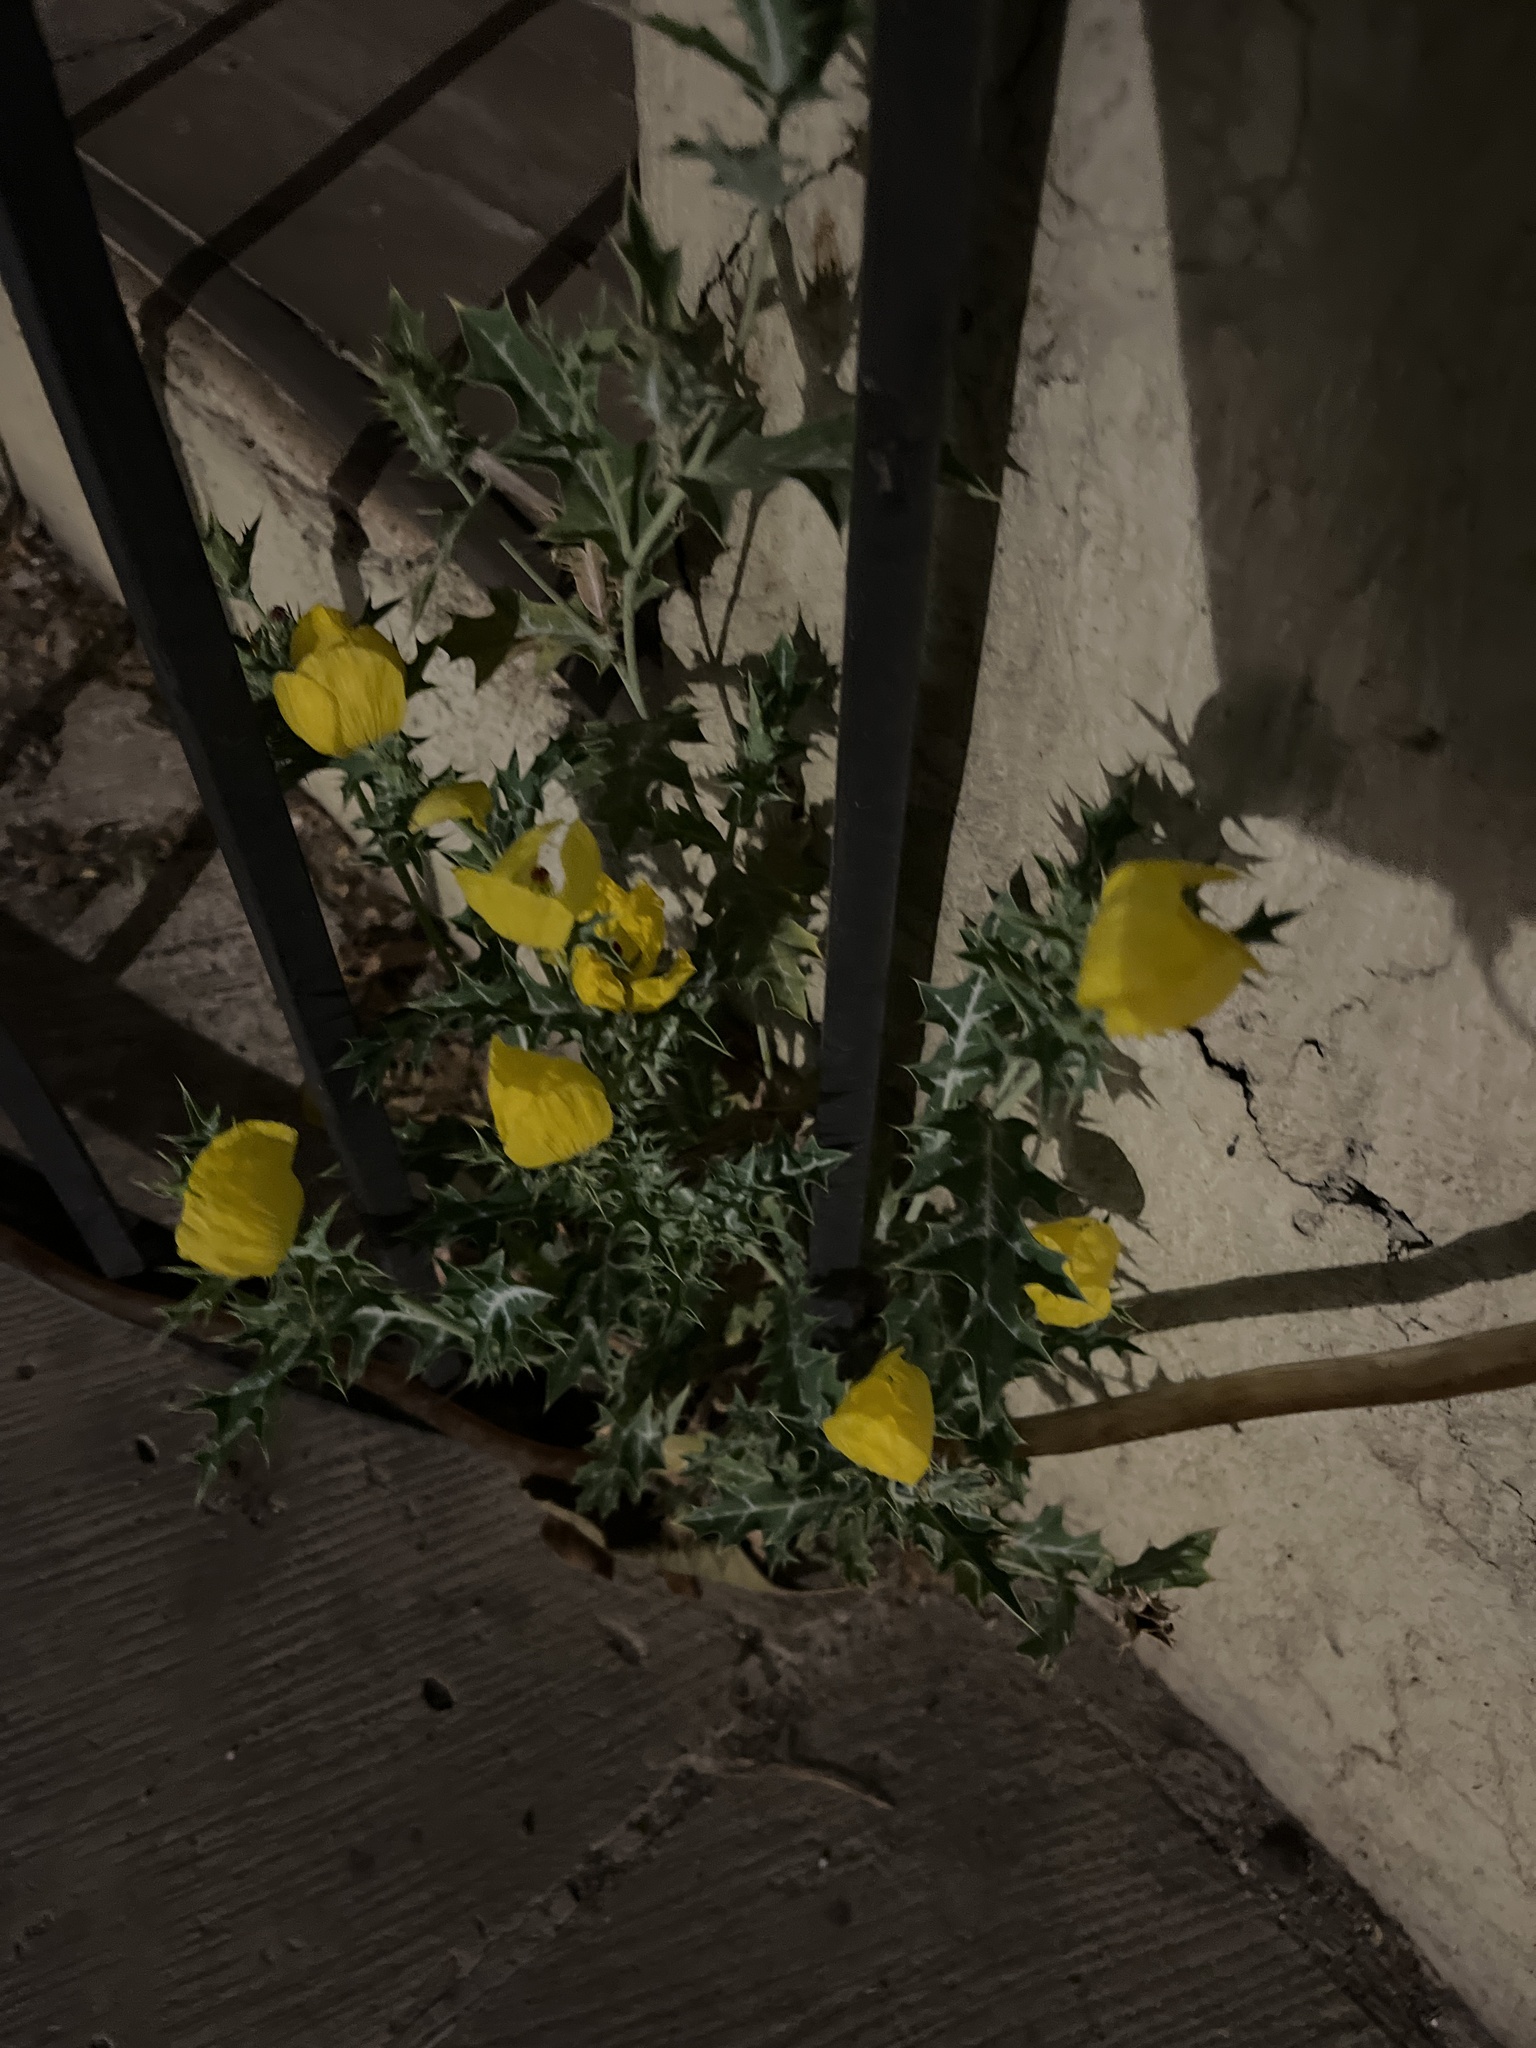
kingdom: Plantae
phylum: Tracheophyta
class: Magnoliopsida
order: Ranunculales
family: Papaveraceae
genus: Argemone
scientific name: Argemone mexicana
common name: Mexican poppy
